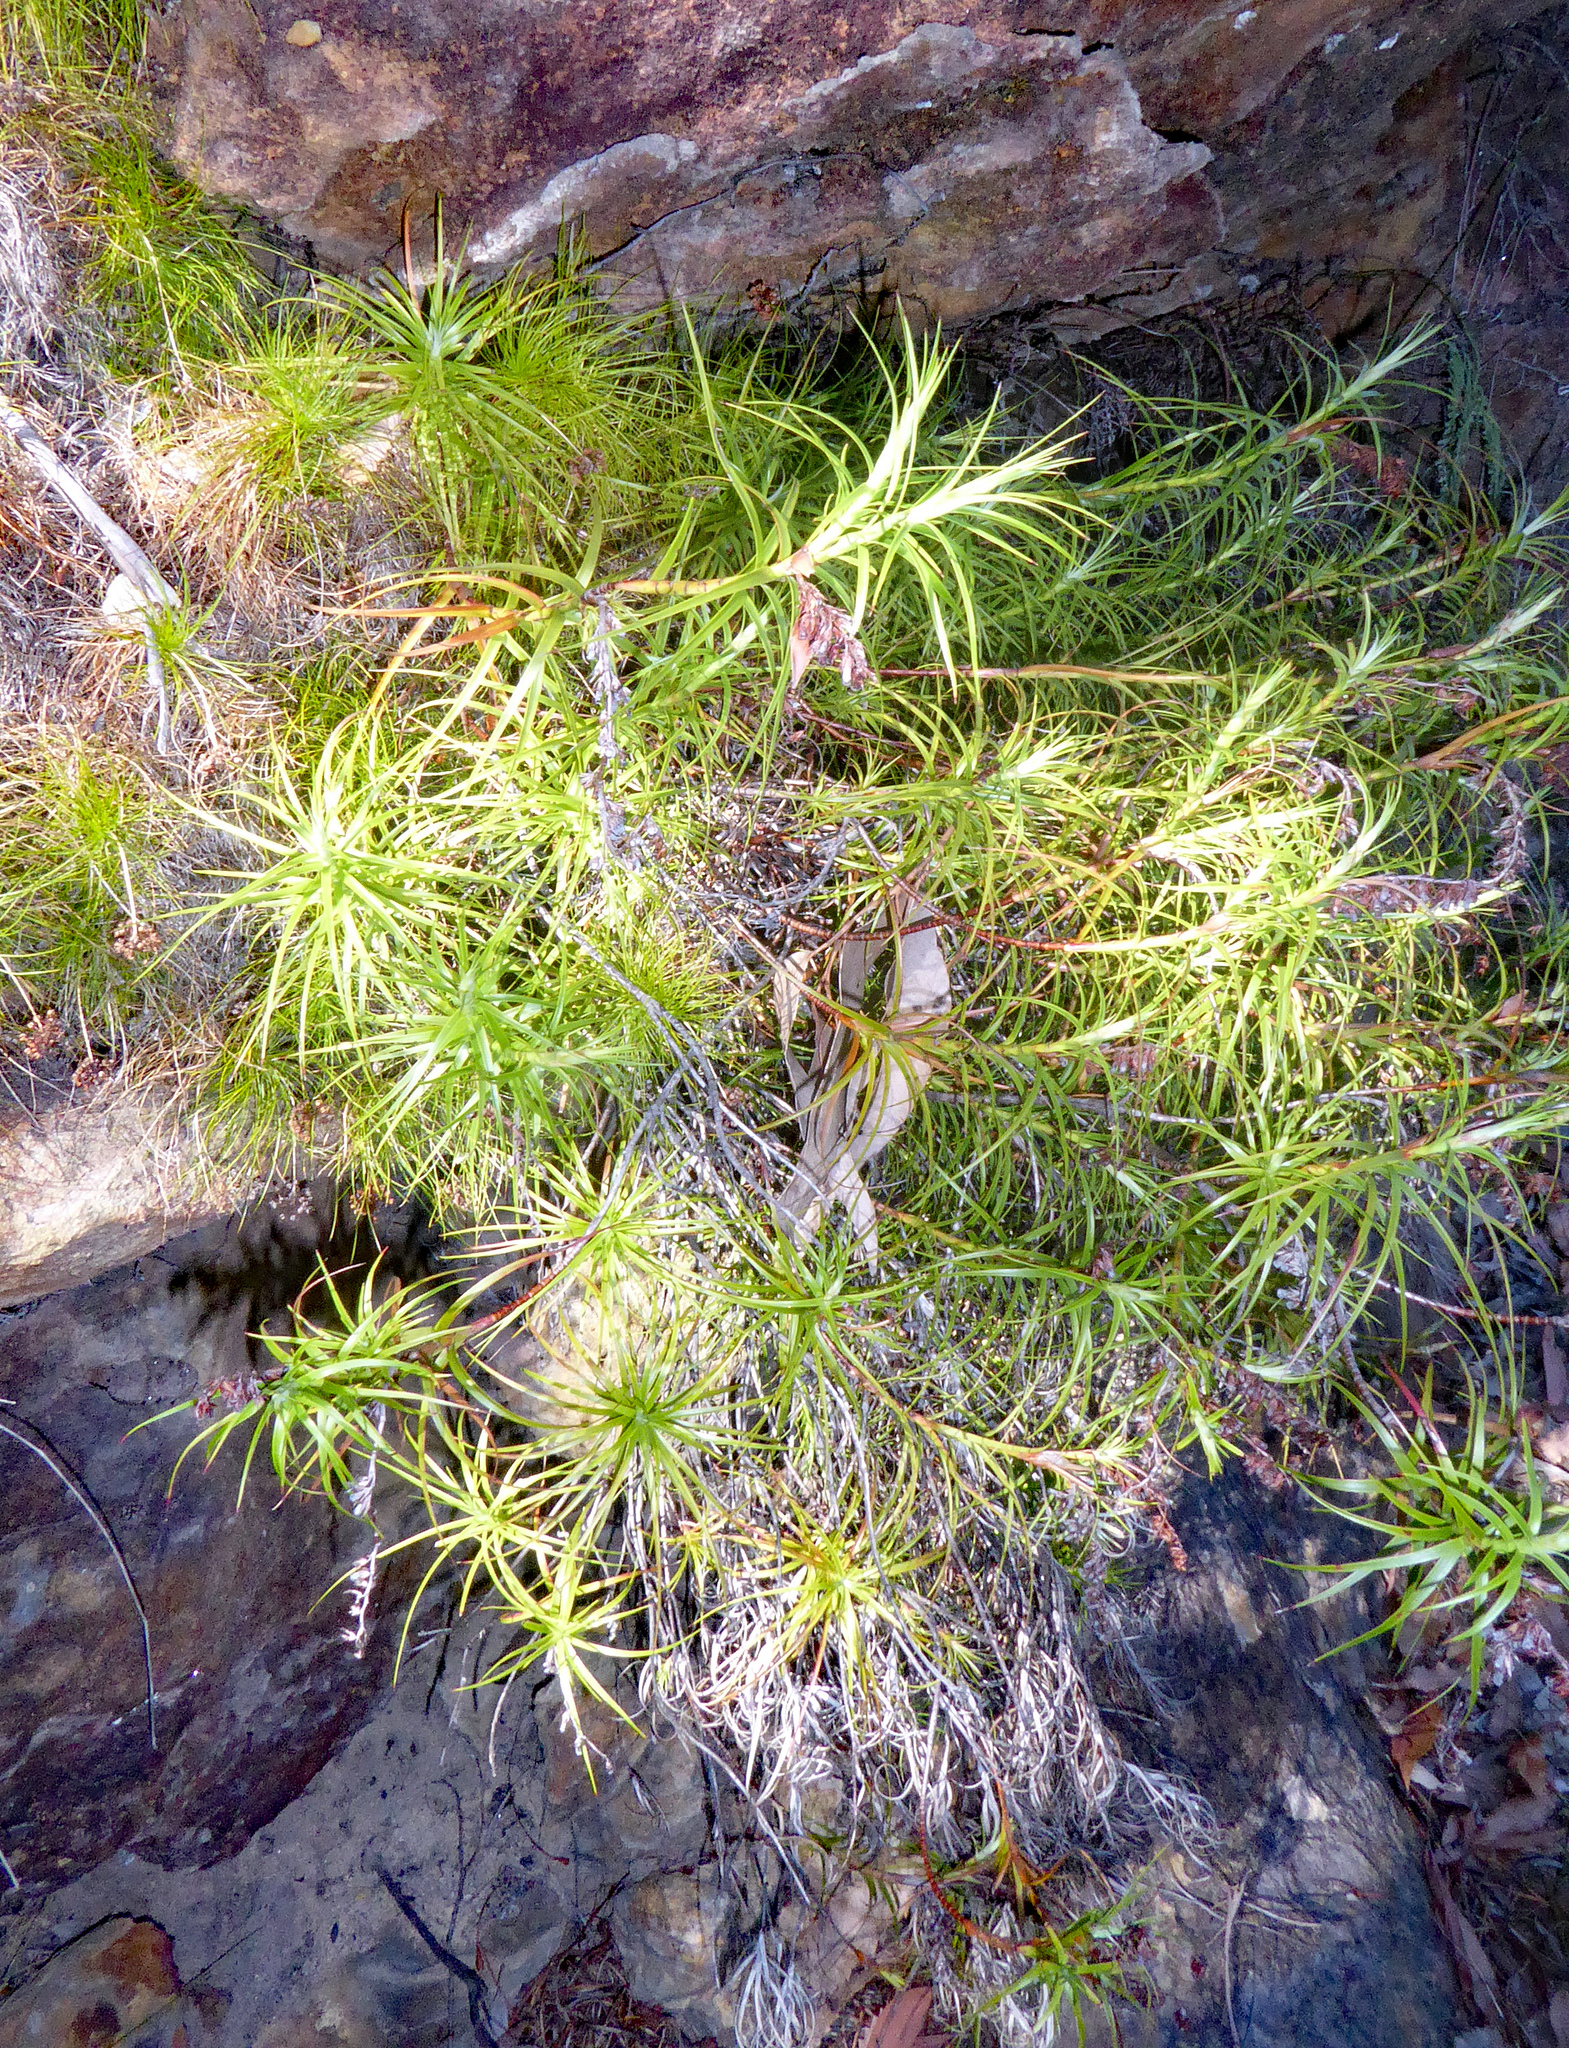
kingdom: Plantae
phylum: Tracheophyta
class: Magnoliopsida
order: Ericales
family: Ericaceae
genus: Dracophyllum
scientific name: Dracophyllum secundum
